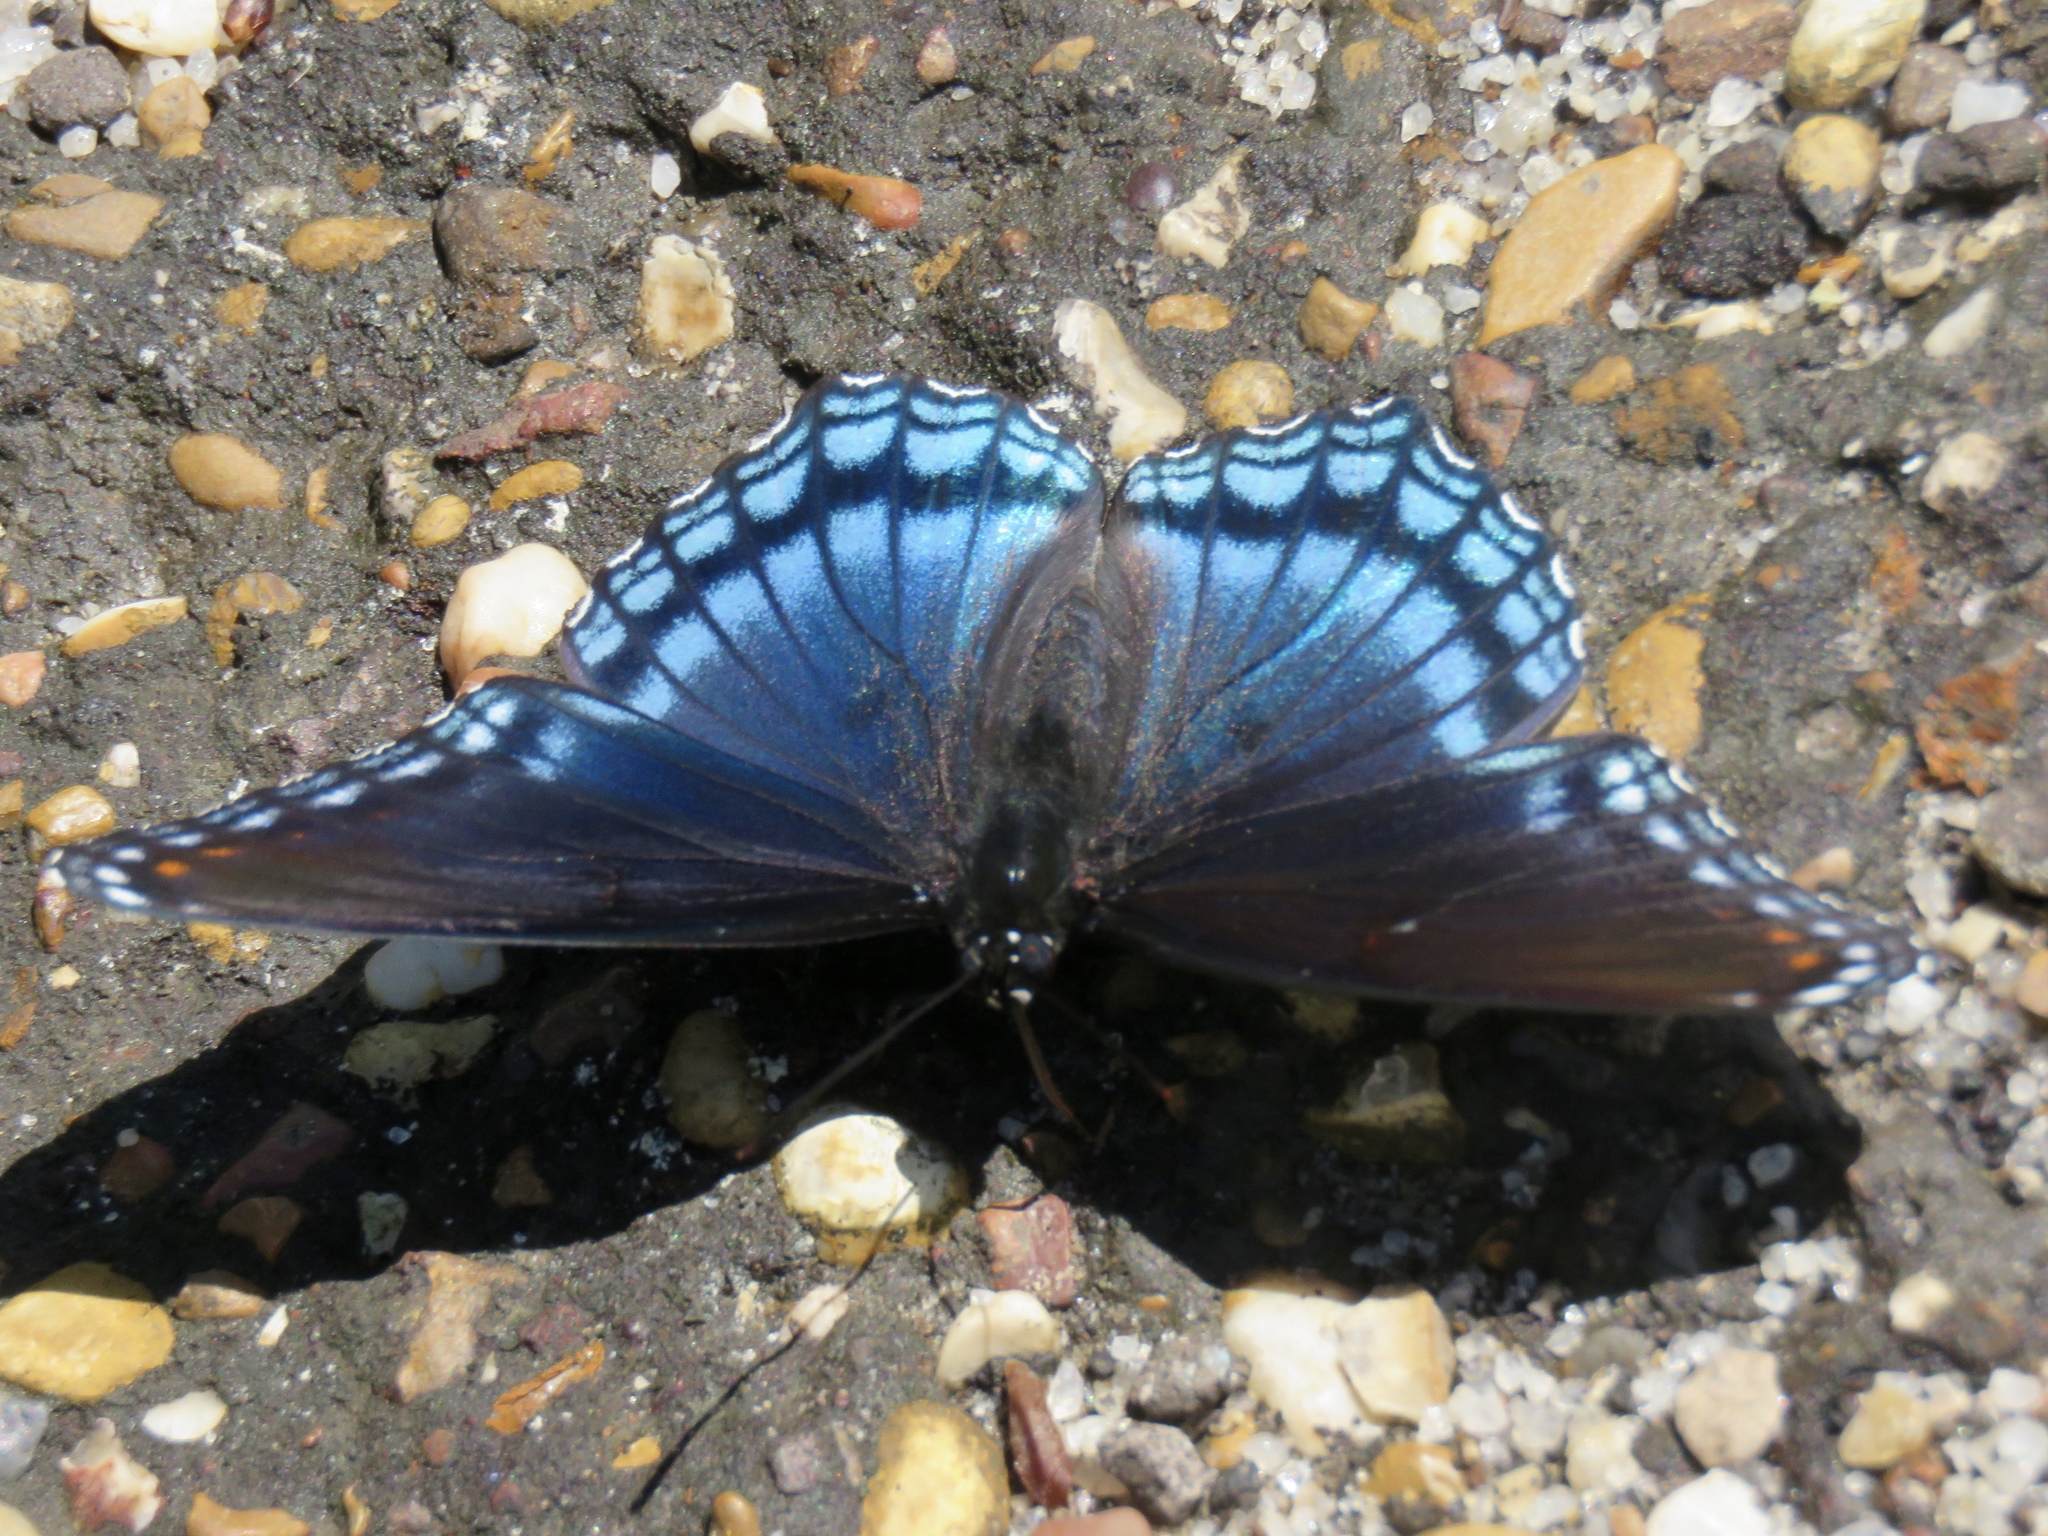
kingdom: Animalia
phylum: Arthropoda
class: Insecta
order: Lepidoptera
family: Nymphalidae
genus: Limenitis
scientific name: Limenitis arthemis
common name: Red-spotted admiral
